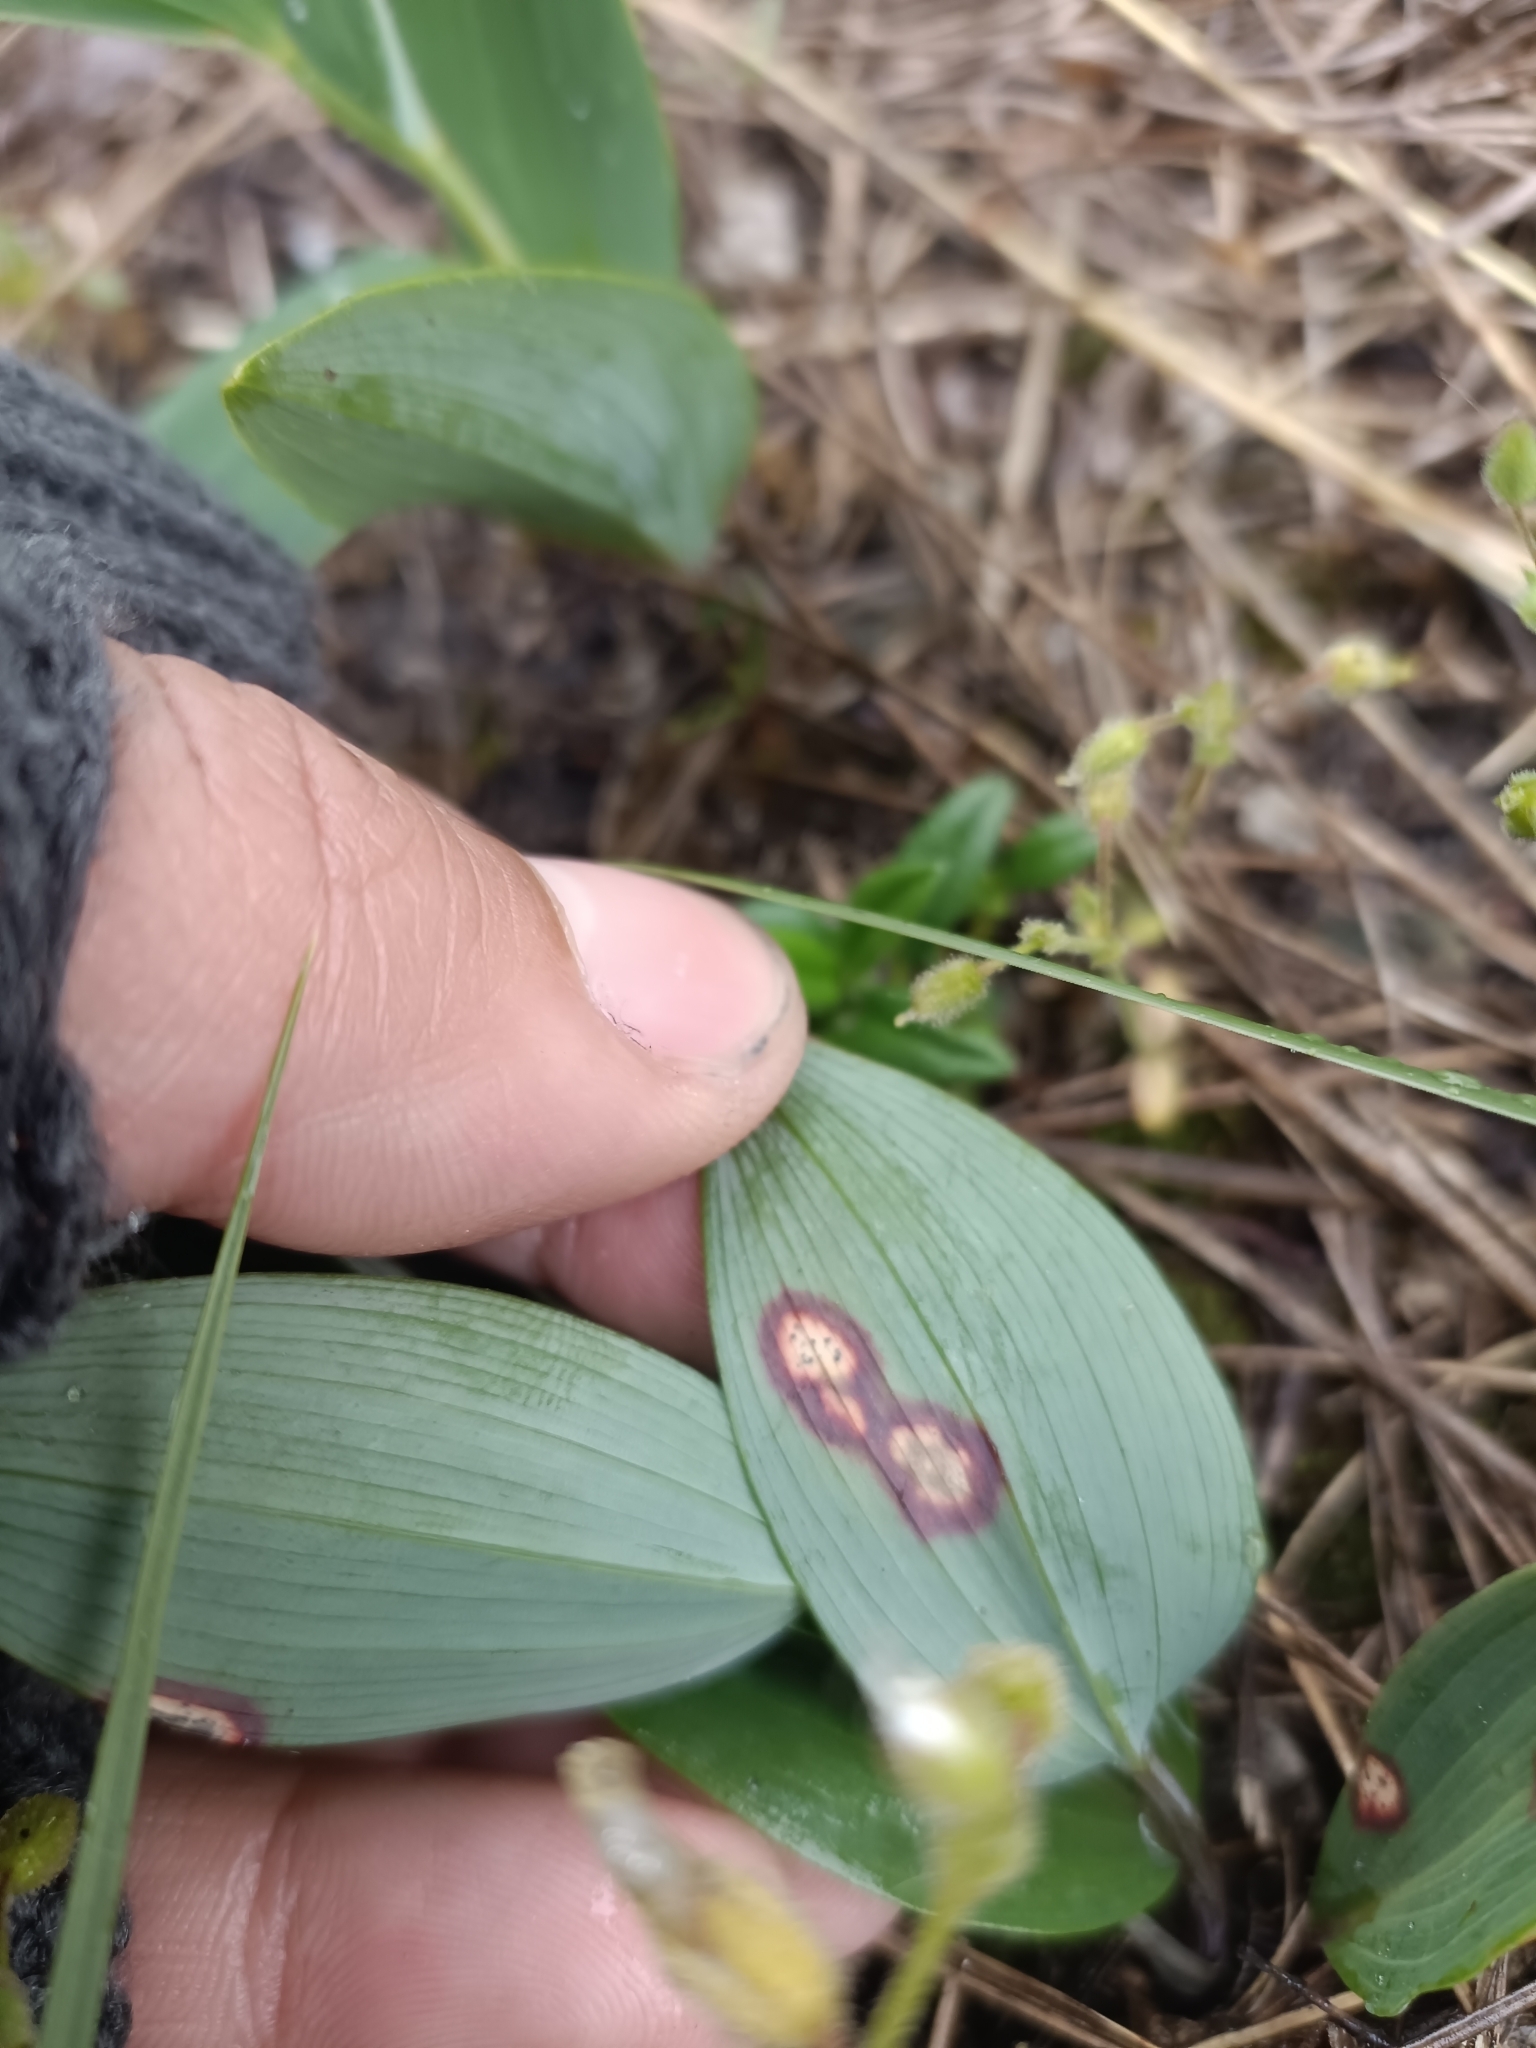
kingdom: Fungi
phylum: Ascomycota
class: Dothideomycetes
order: Botryosphaeriales
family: Phyllostictaceae
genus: Phyllosticta
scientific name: Phyllosticta convallariae
